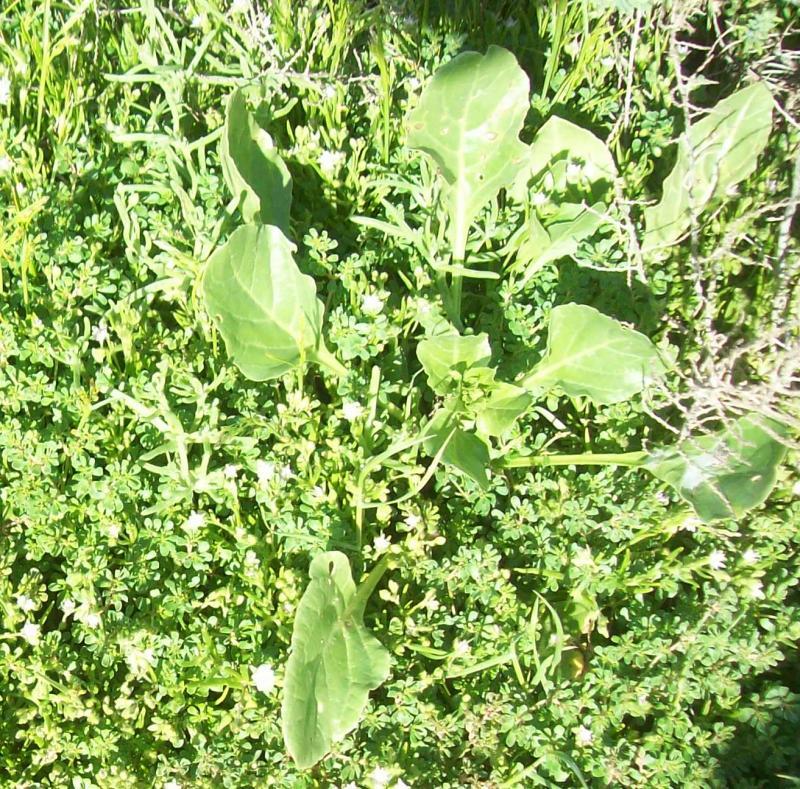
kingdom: Plantae
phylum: Tracheophyta
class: Magnoliopsida
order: Caryophyllales
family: Amaranthaceae
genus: Beta
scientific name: Beta vulgaris
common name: Beet
